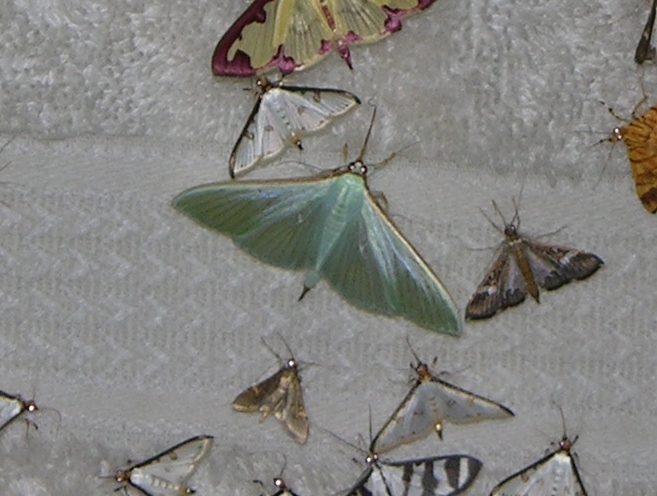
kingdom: Animalia
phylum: Arthropoda
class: Insecta
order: Lepidoptera
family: Crambidae
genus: Stemorrhages
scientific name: Stemorrhages sericea
